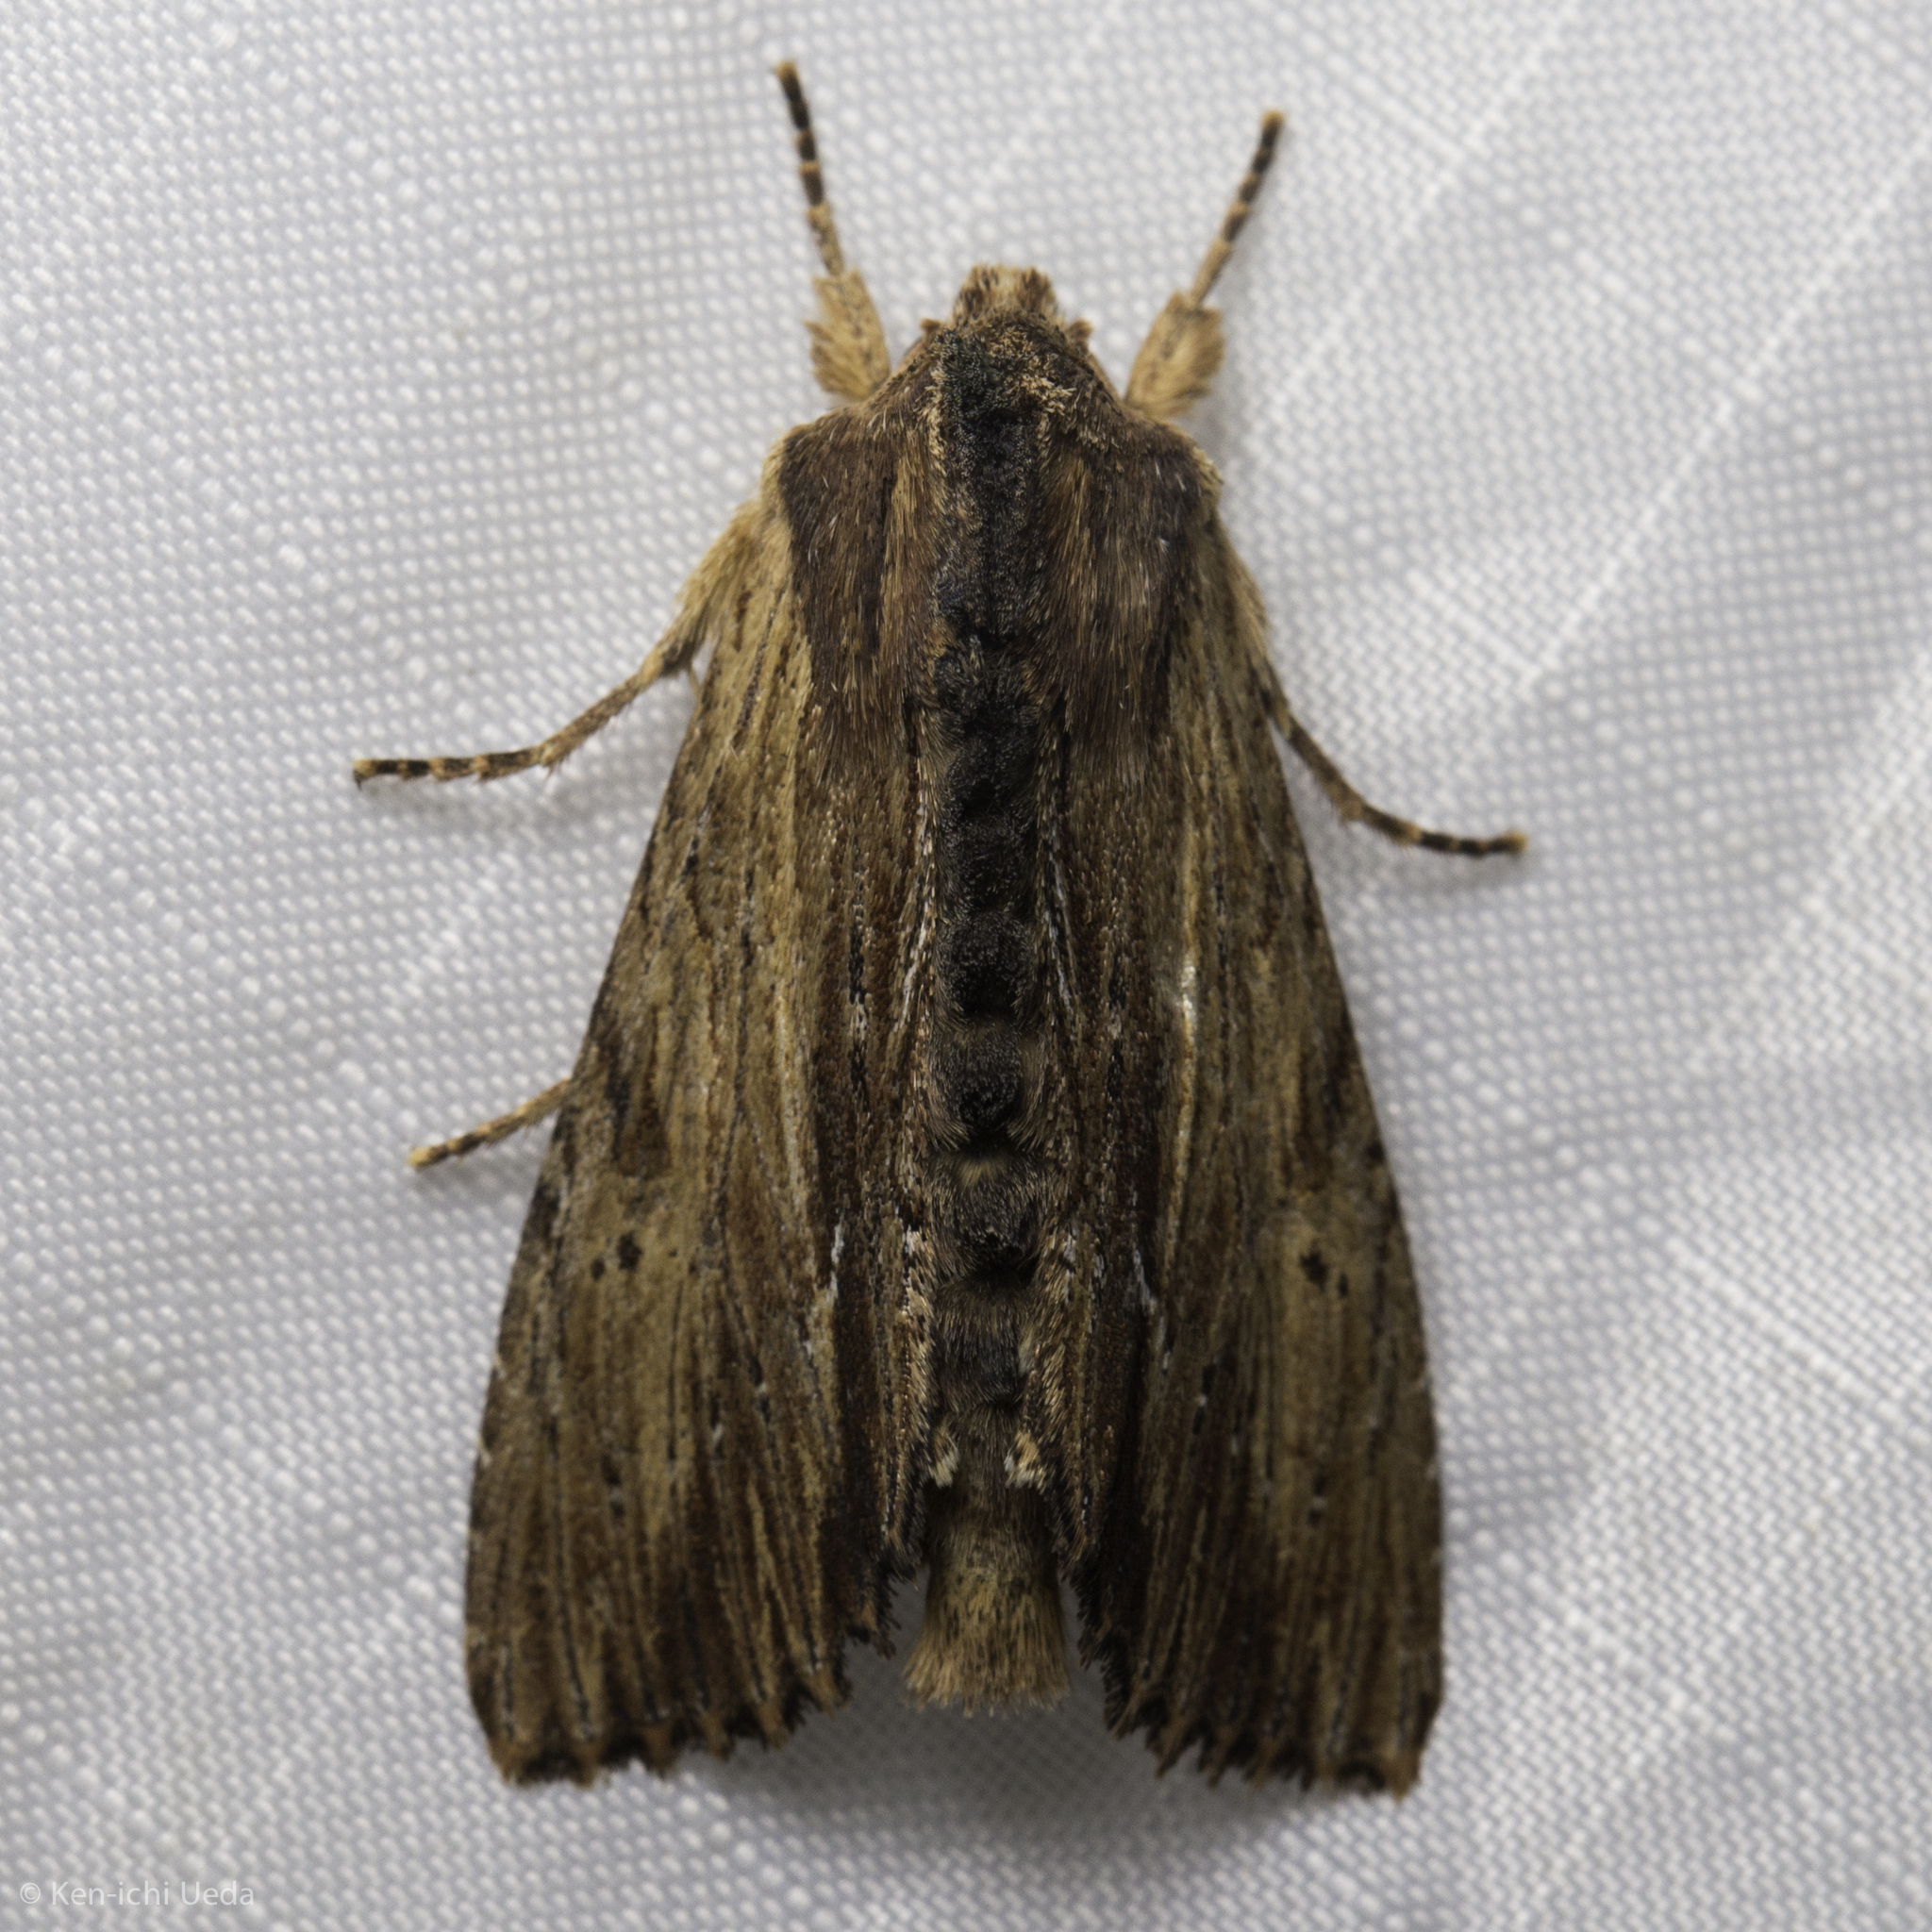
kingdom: Animalia
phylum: Arthropoda
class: Insecta
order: Lepidoptera
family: Noctuidae
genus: Apamea
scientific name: Apamea cuculliformis
